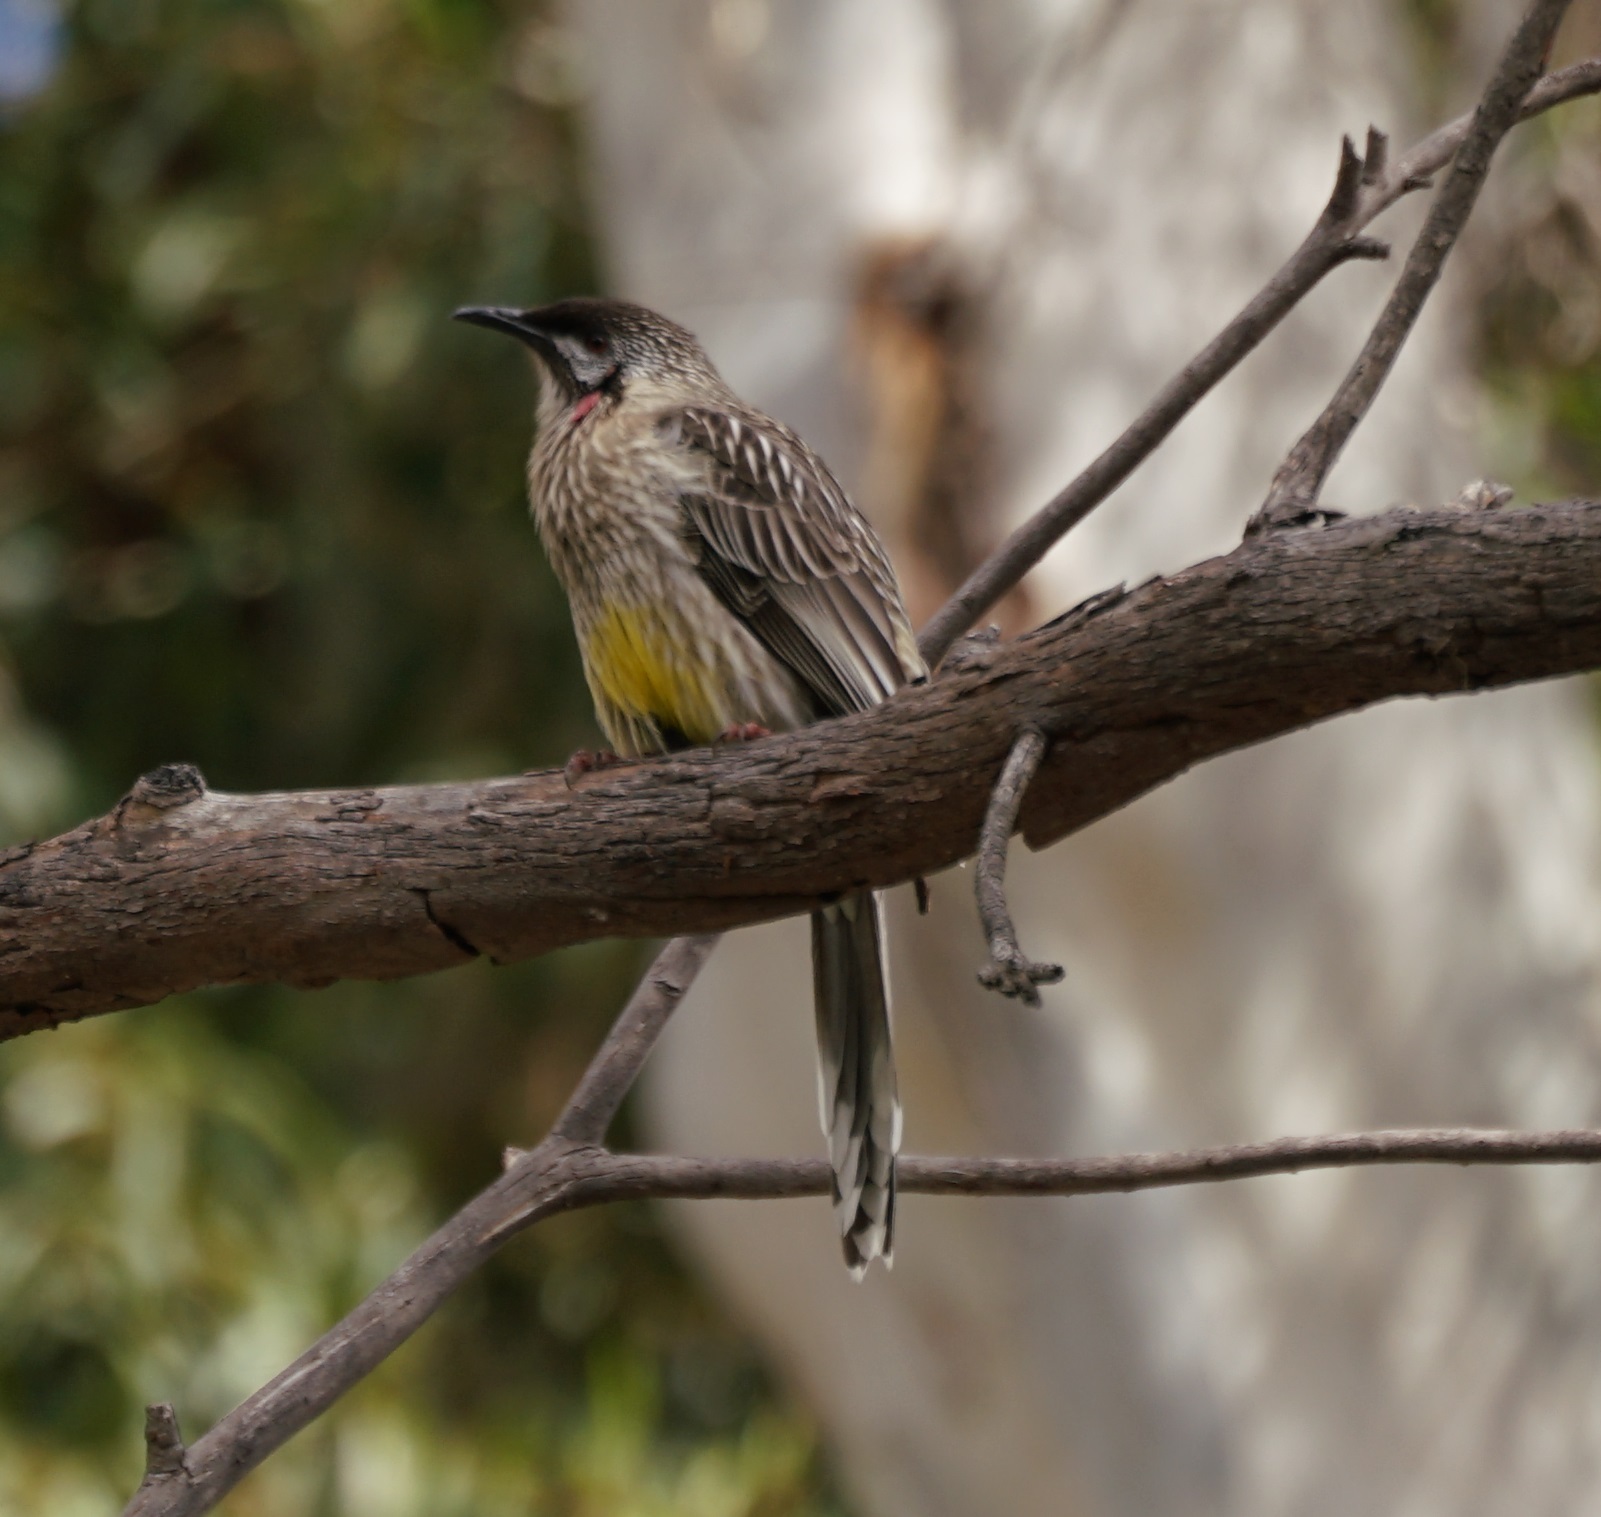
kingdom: Animalia
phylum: Chordata
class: Aves
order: Passeriformes
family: Meliphagidae
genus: Anthochaera
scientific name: Anthochaera carunculata
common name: Red wattlebird
